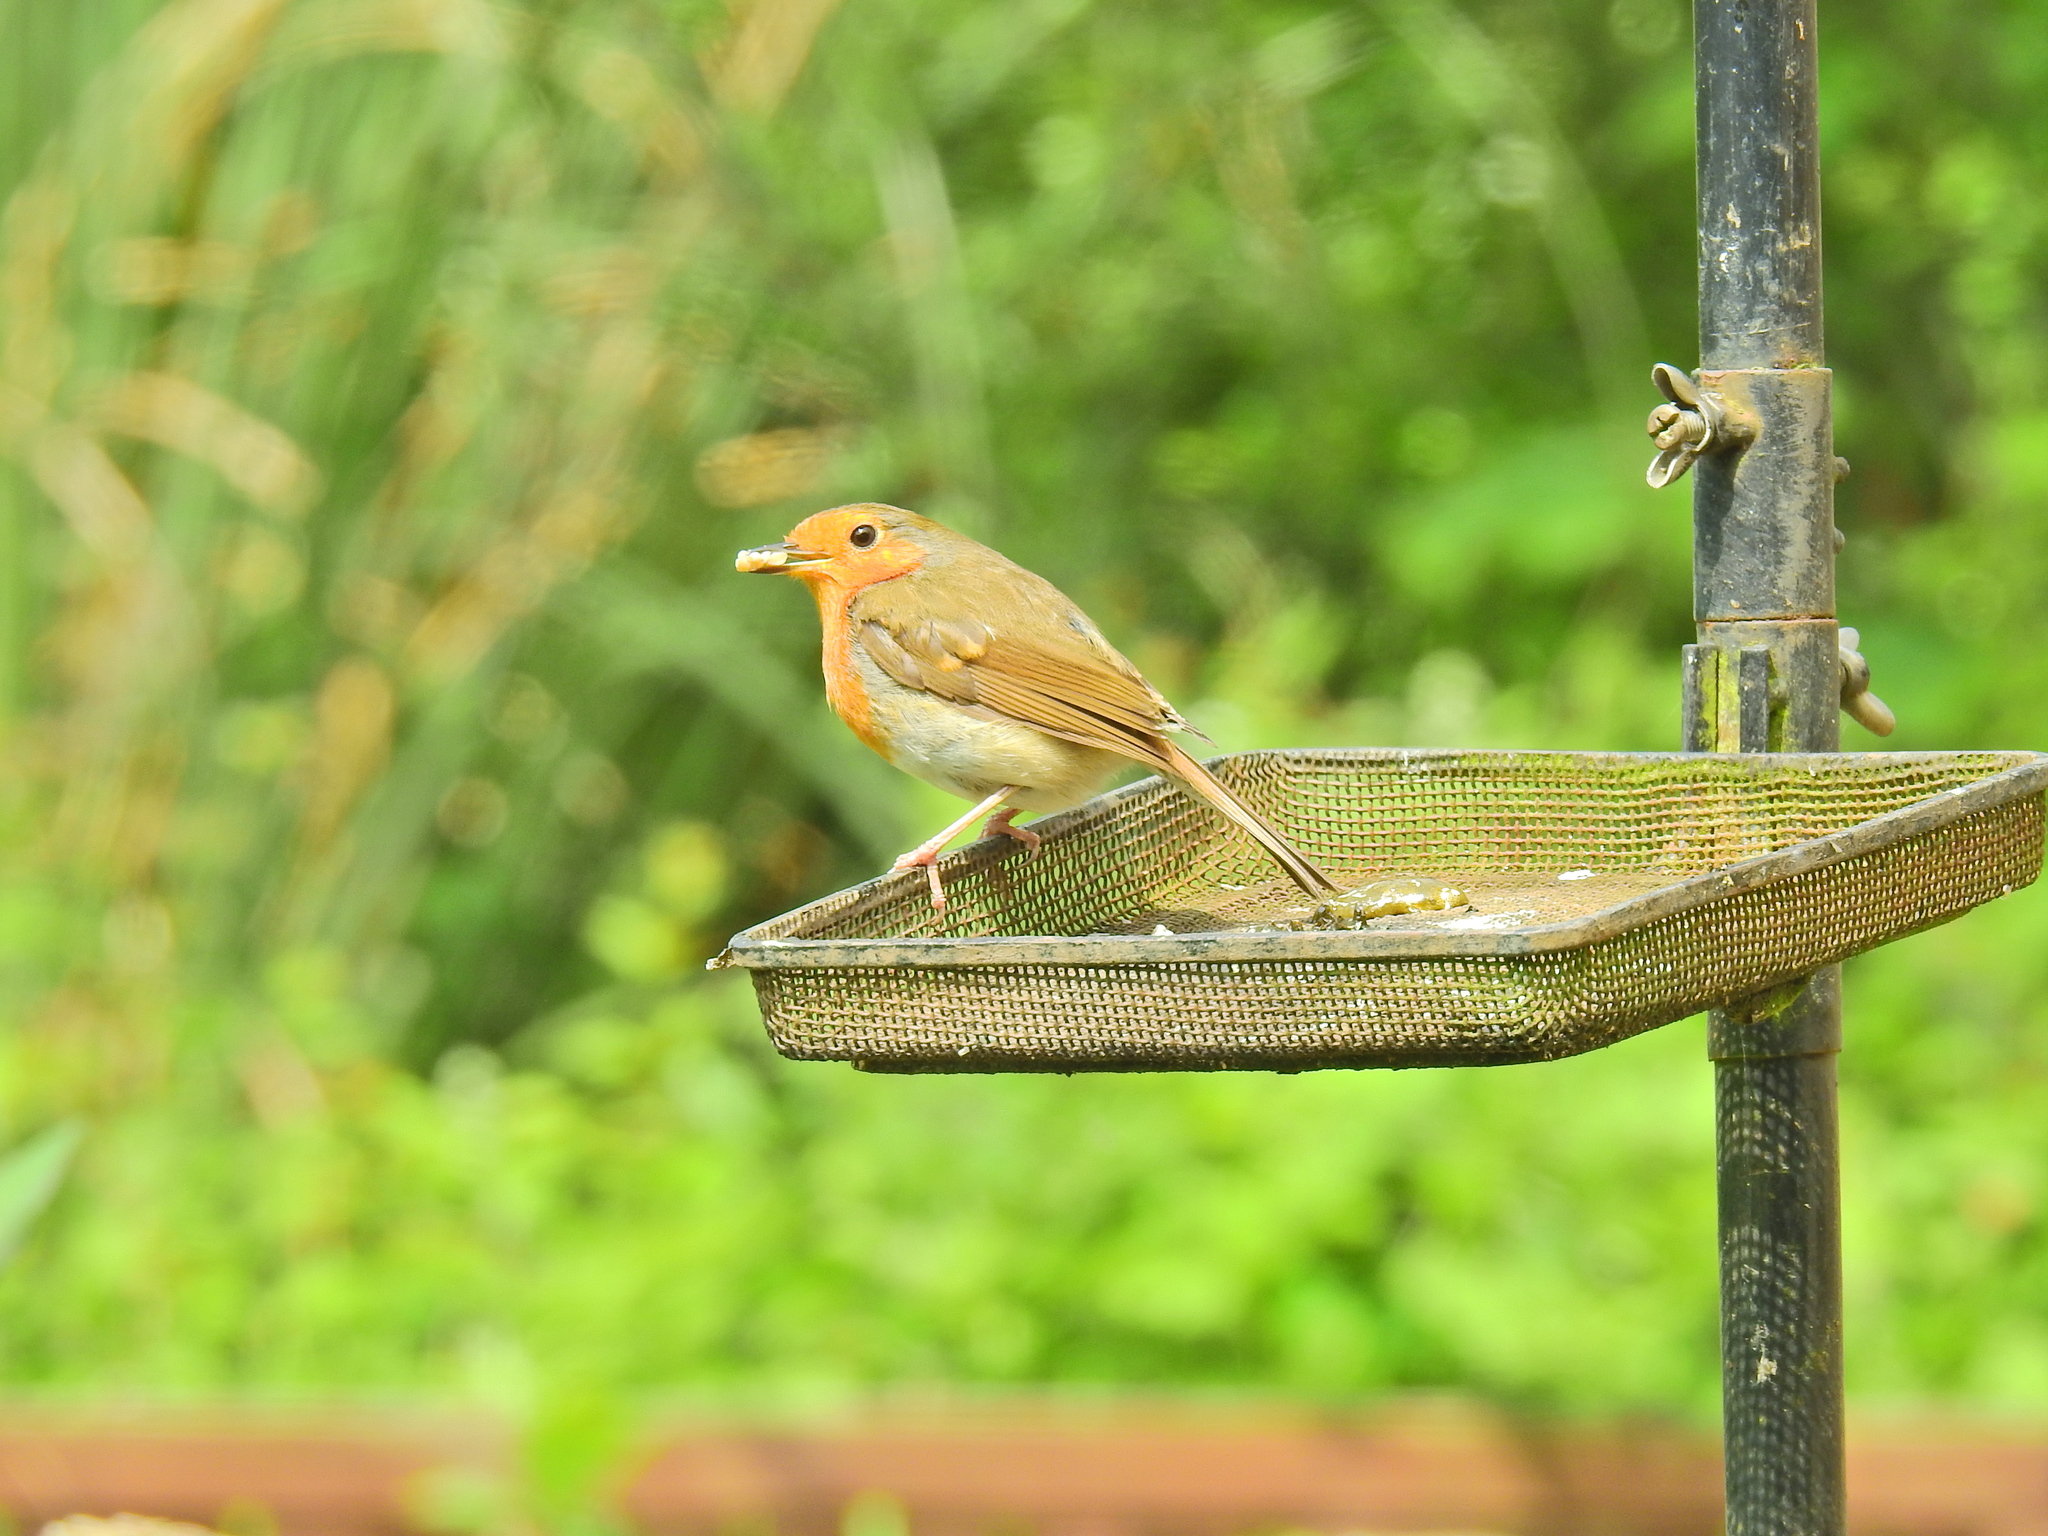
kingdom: Animalia
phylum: Chordata
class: Aves
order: Passeriformes
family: Muscicapidae
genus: Erithacus
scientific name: Erithacus rubecula
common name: European robin
